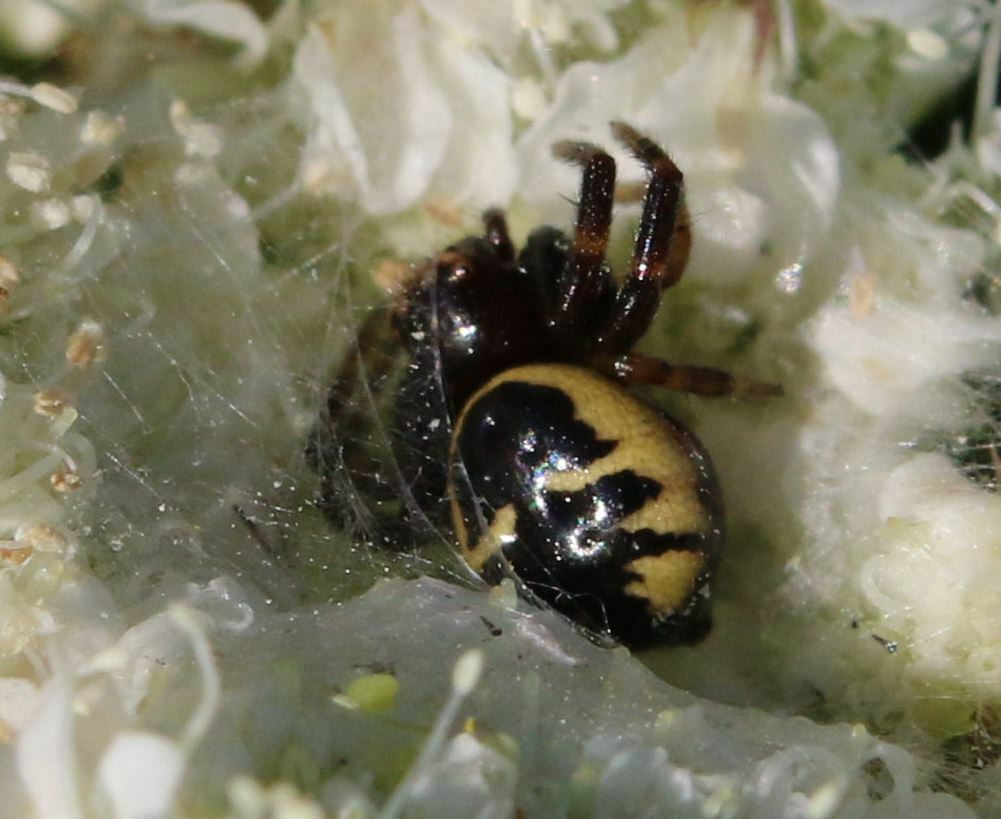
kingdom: Animalia
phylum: Arthropoda
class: Arachnida
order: Araneae
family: Thomisidae
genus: Synema
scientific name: Synema globosum
